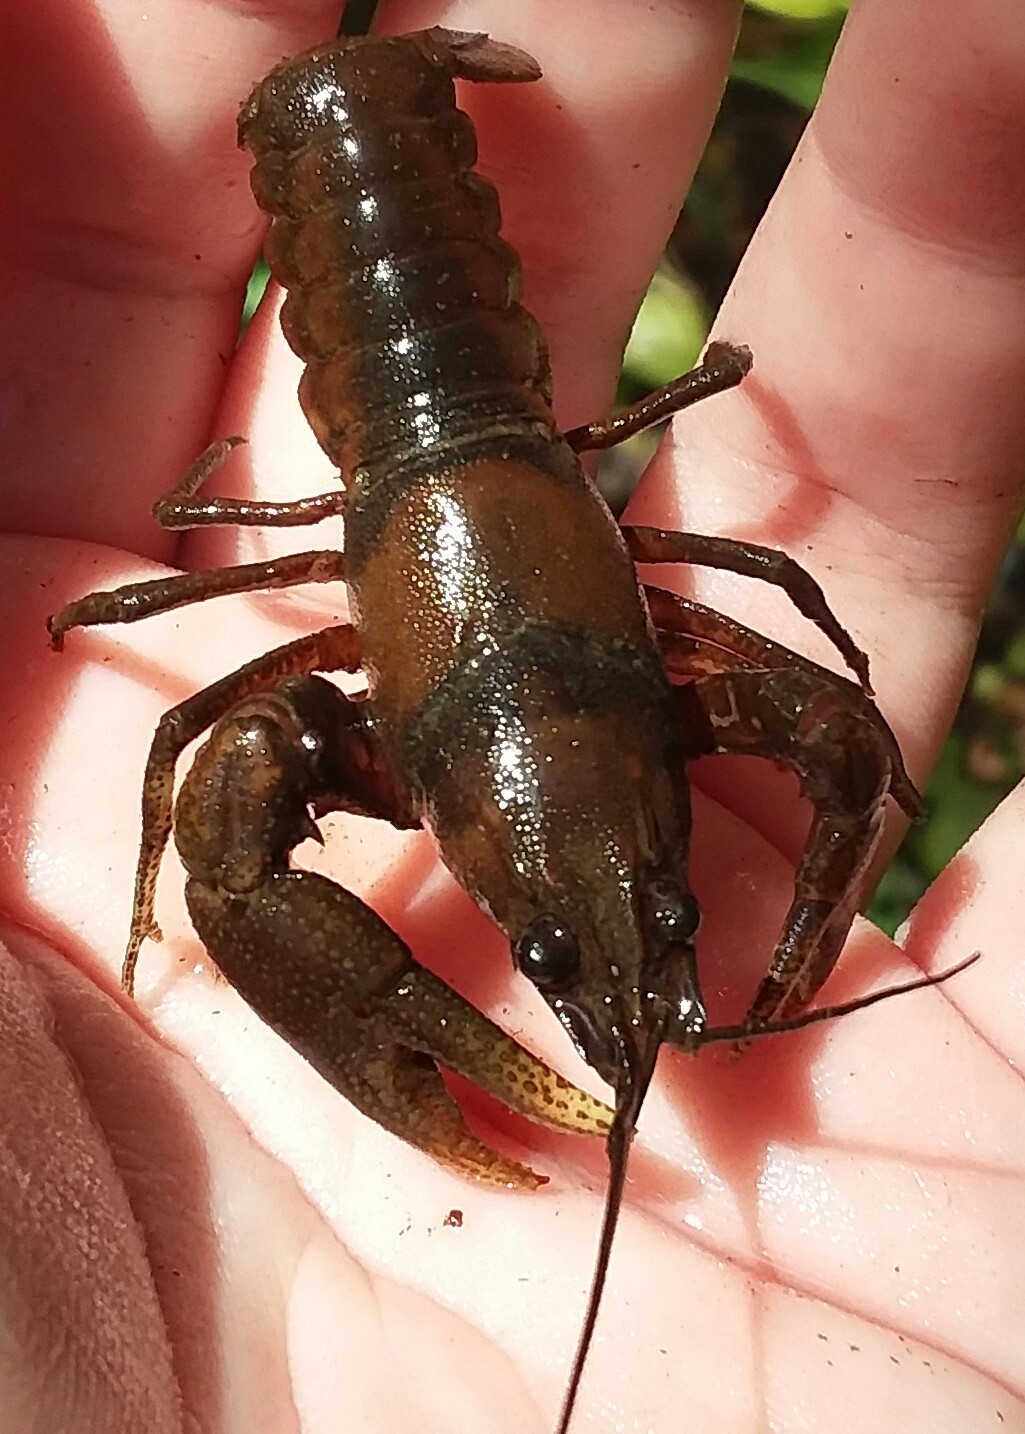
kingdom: Animalia
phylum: Arthropoda
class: Malacostraca
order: Decapoda
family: Cambaridae
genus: Cambarus
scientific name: Cambarus girardianus
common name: Tanback crayfish
